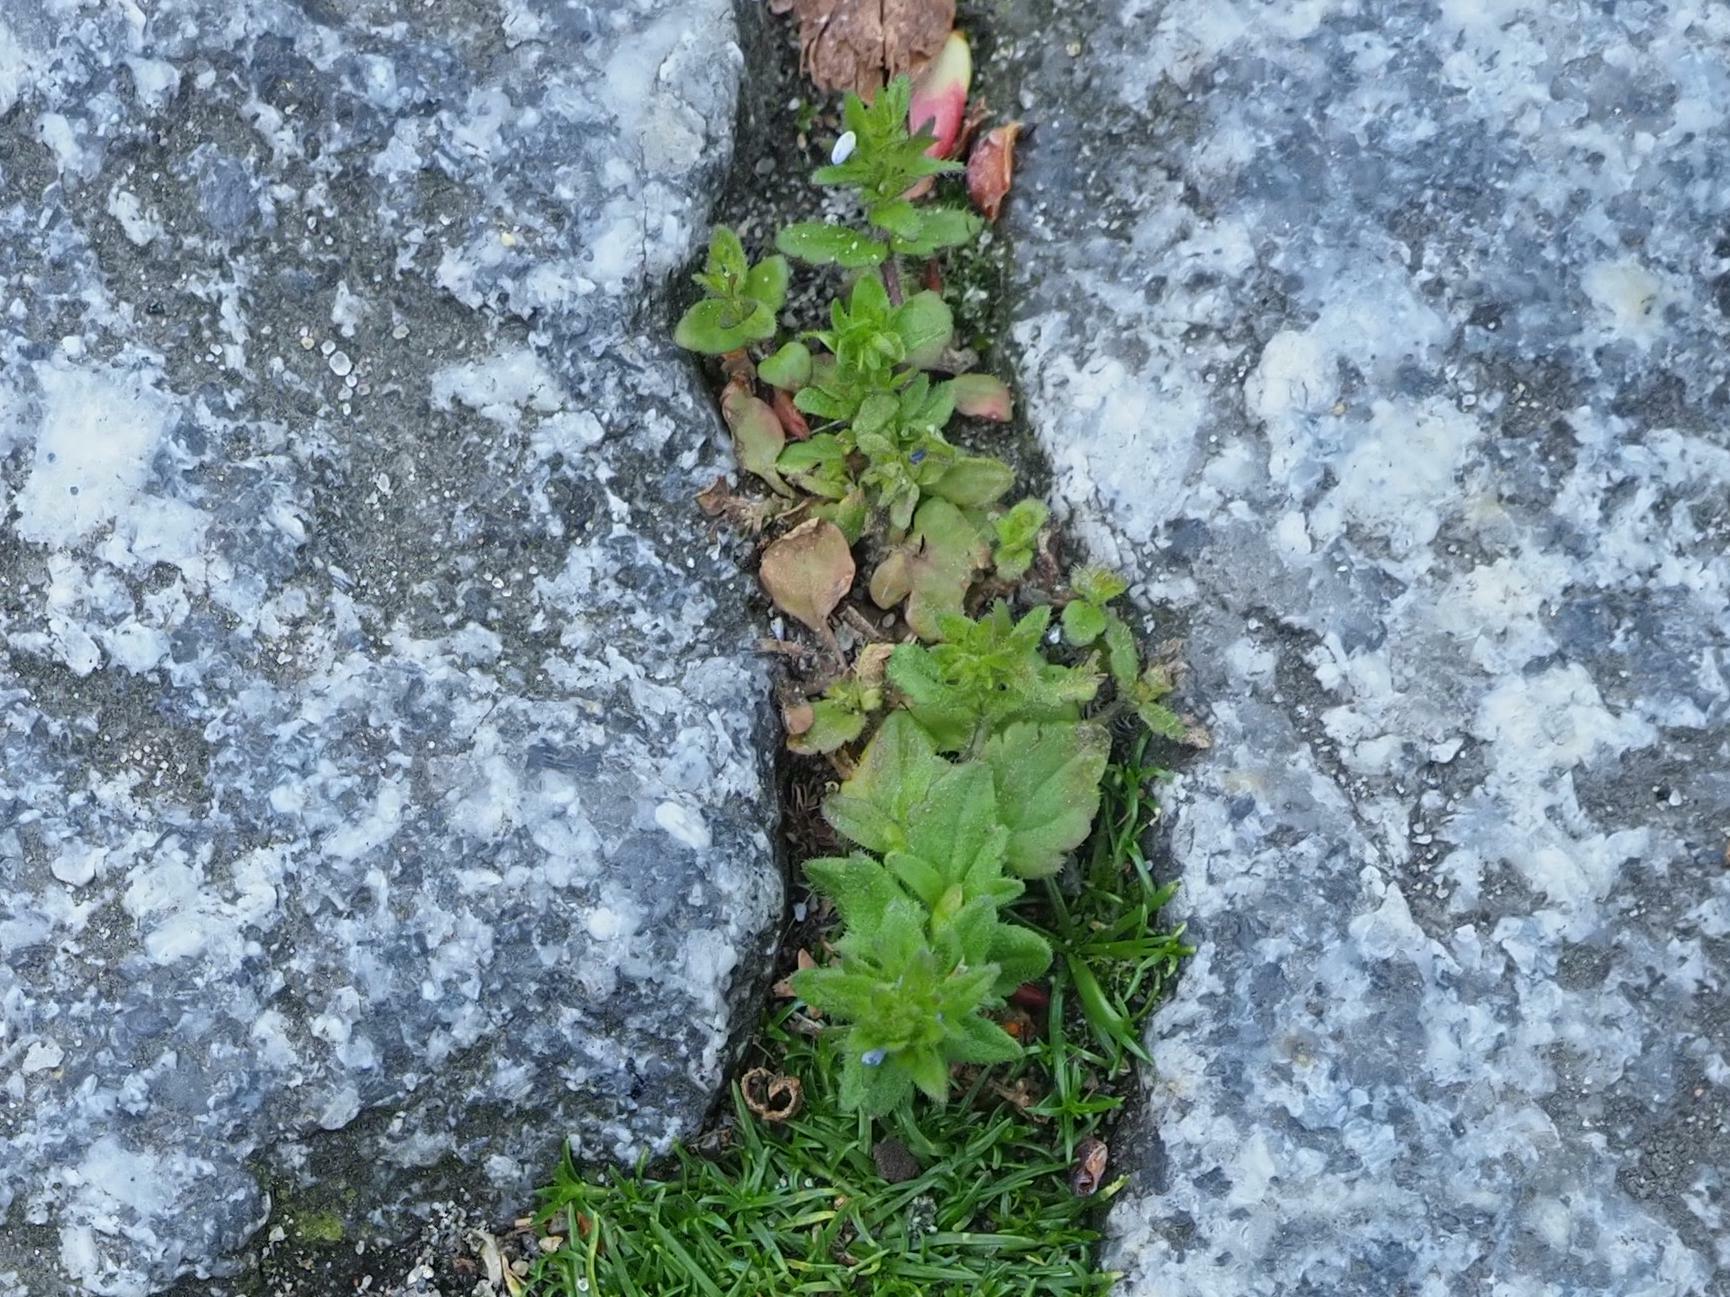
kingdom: Plantae
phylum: Tracheophyta
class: Magnoliopsida
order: Lamiales
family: Plantaginaceae
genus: Veronica
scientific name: Veronica arvensis
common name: Corn speedwell
